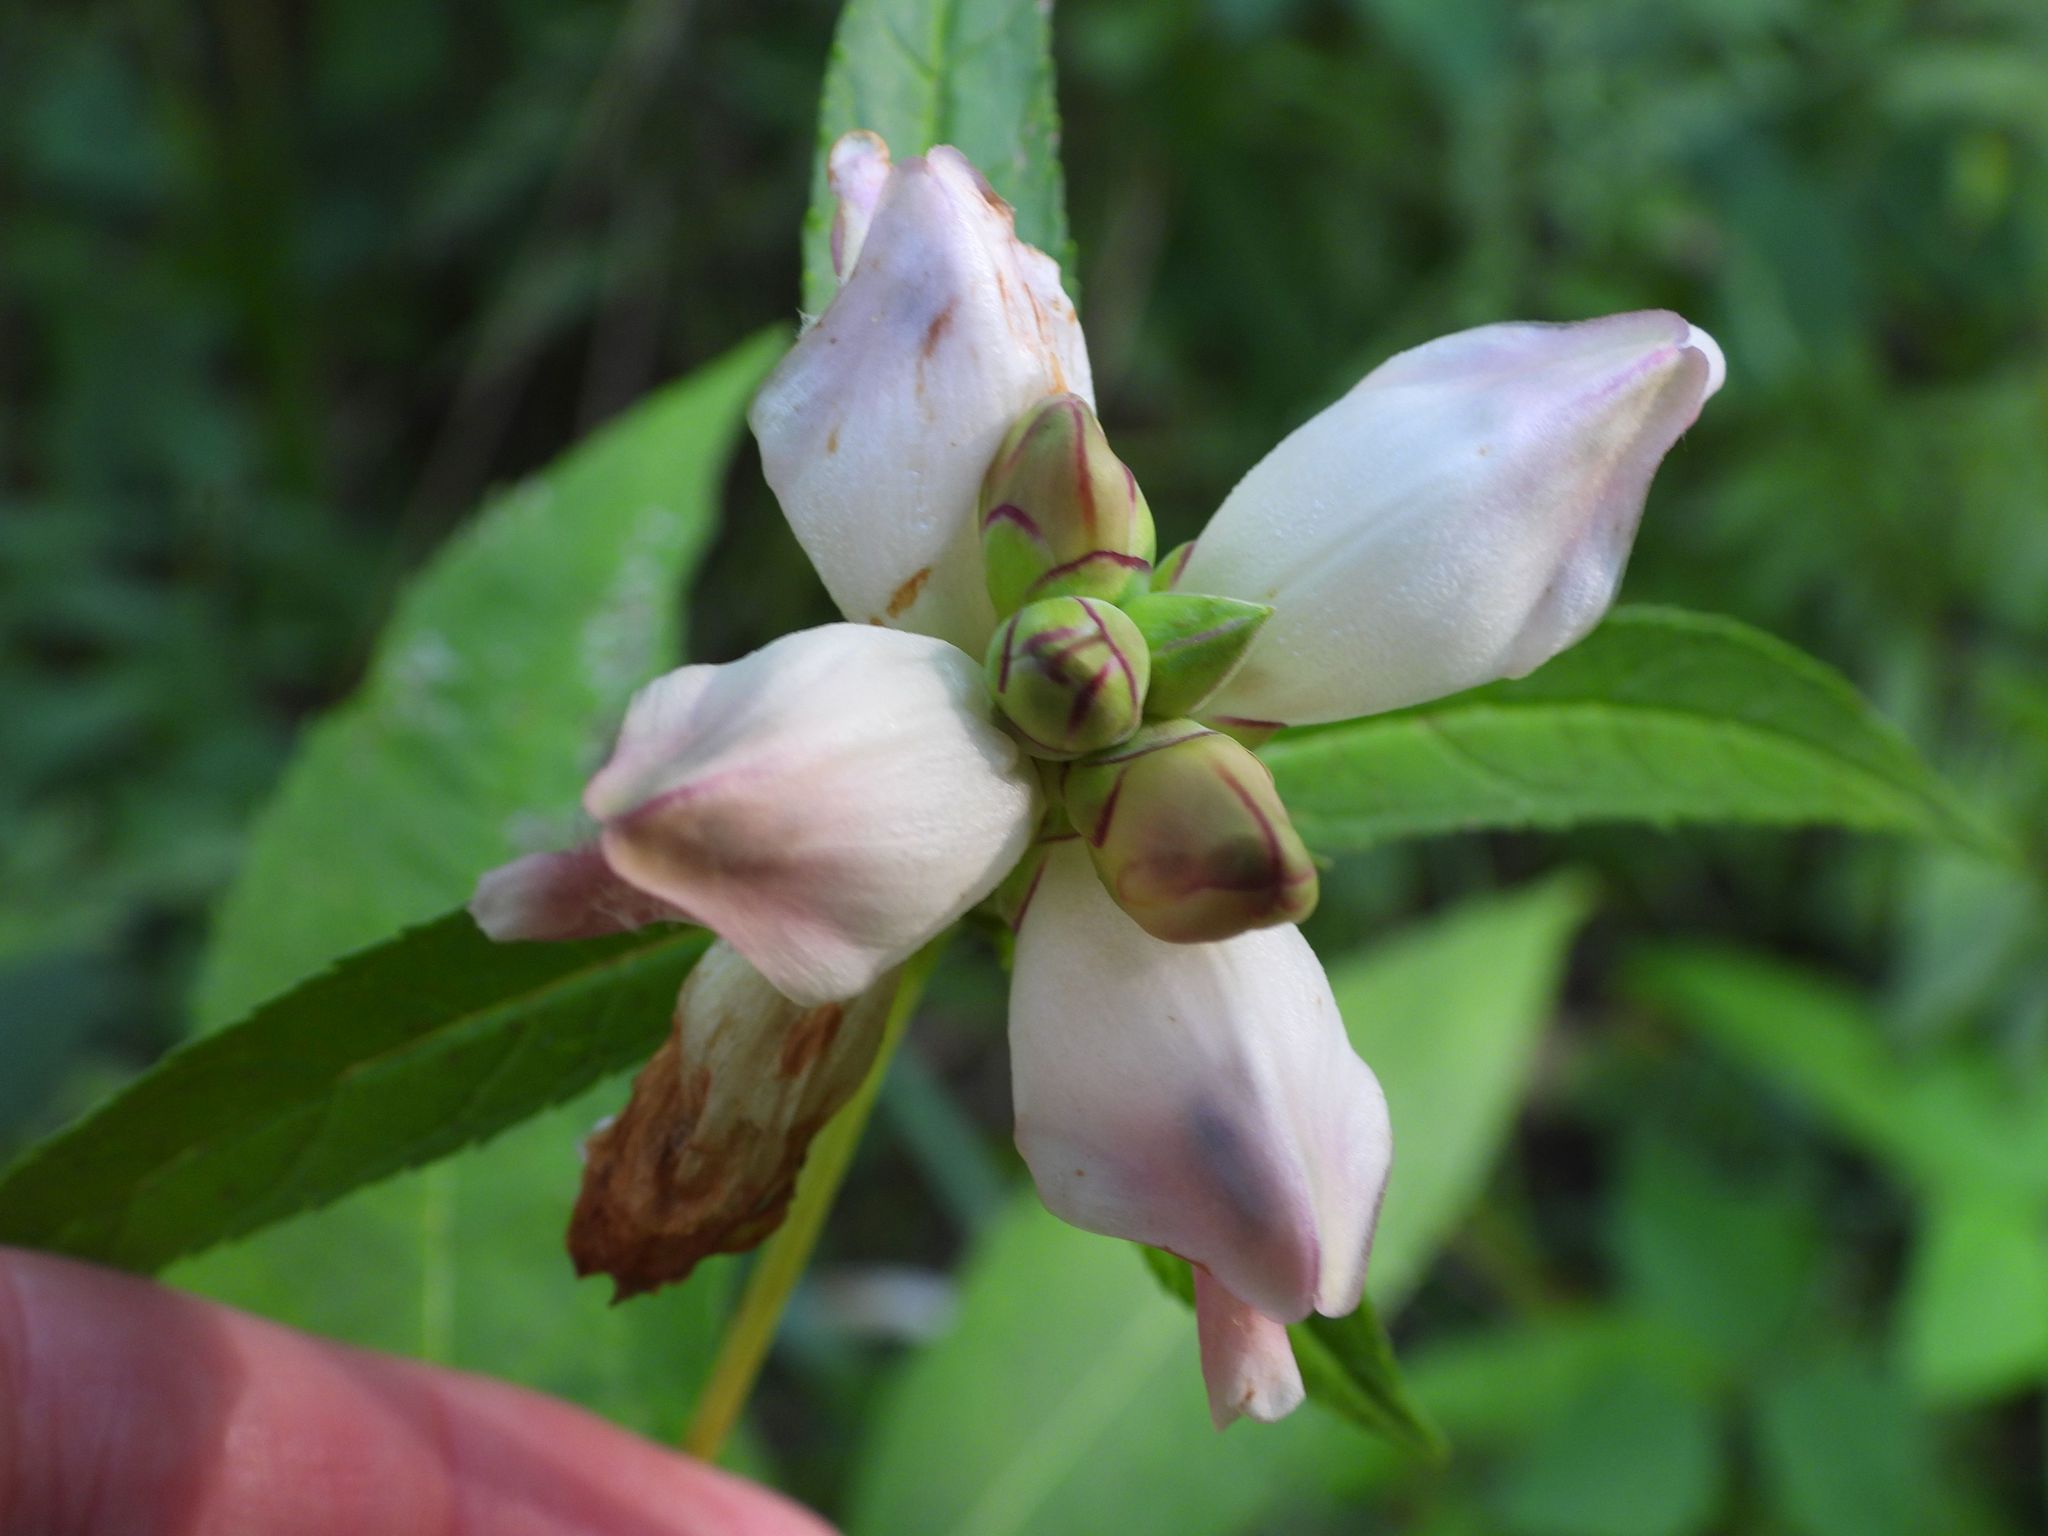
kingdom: Plantae
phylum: Tracheophyta
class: Magnoliopsida
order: Lamiales
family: Plantaginaceae
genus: Chelone
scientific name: Chelone glabra
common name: Snakehead
